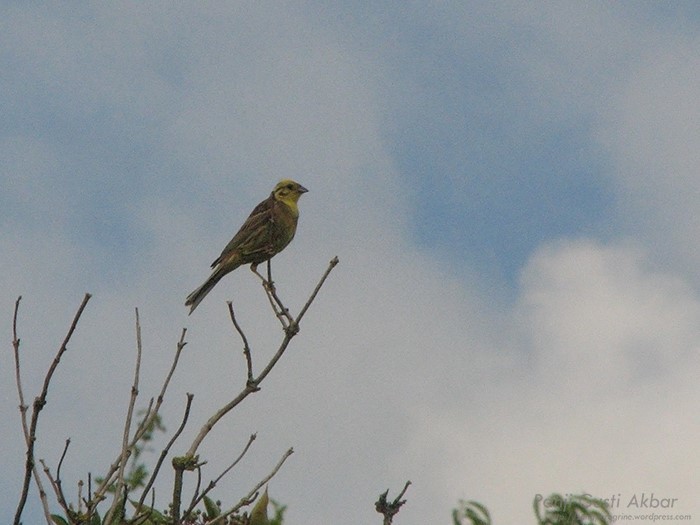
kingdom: Animalia
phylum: Chordata
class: Aves
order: Passeriformes
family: Emberizidae
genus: Emberiza
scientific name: Emberiza citrinella
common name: Yellowhammer
